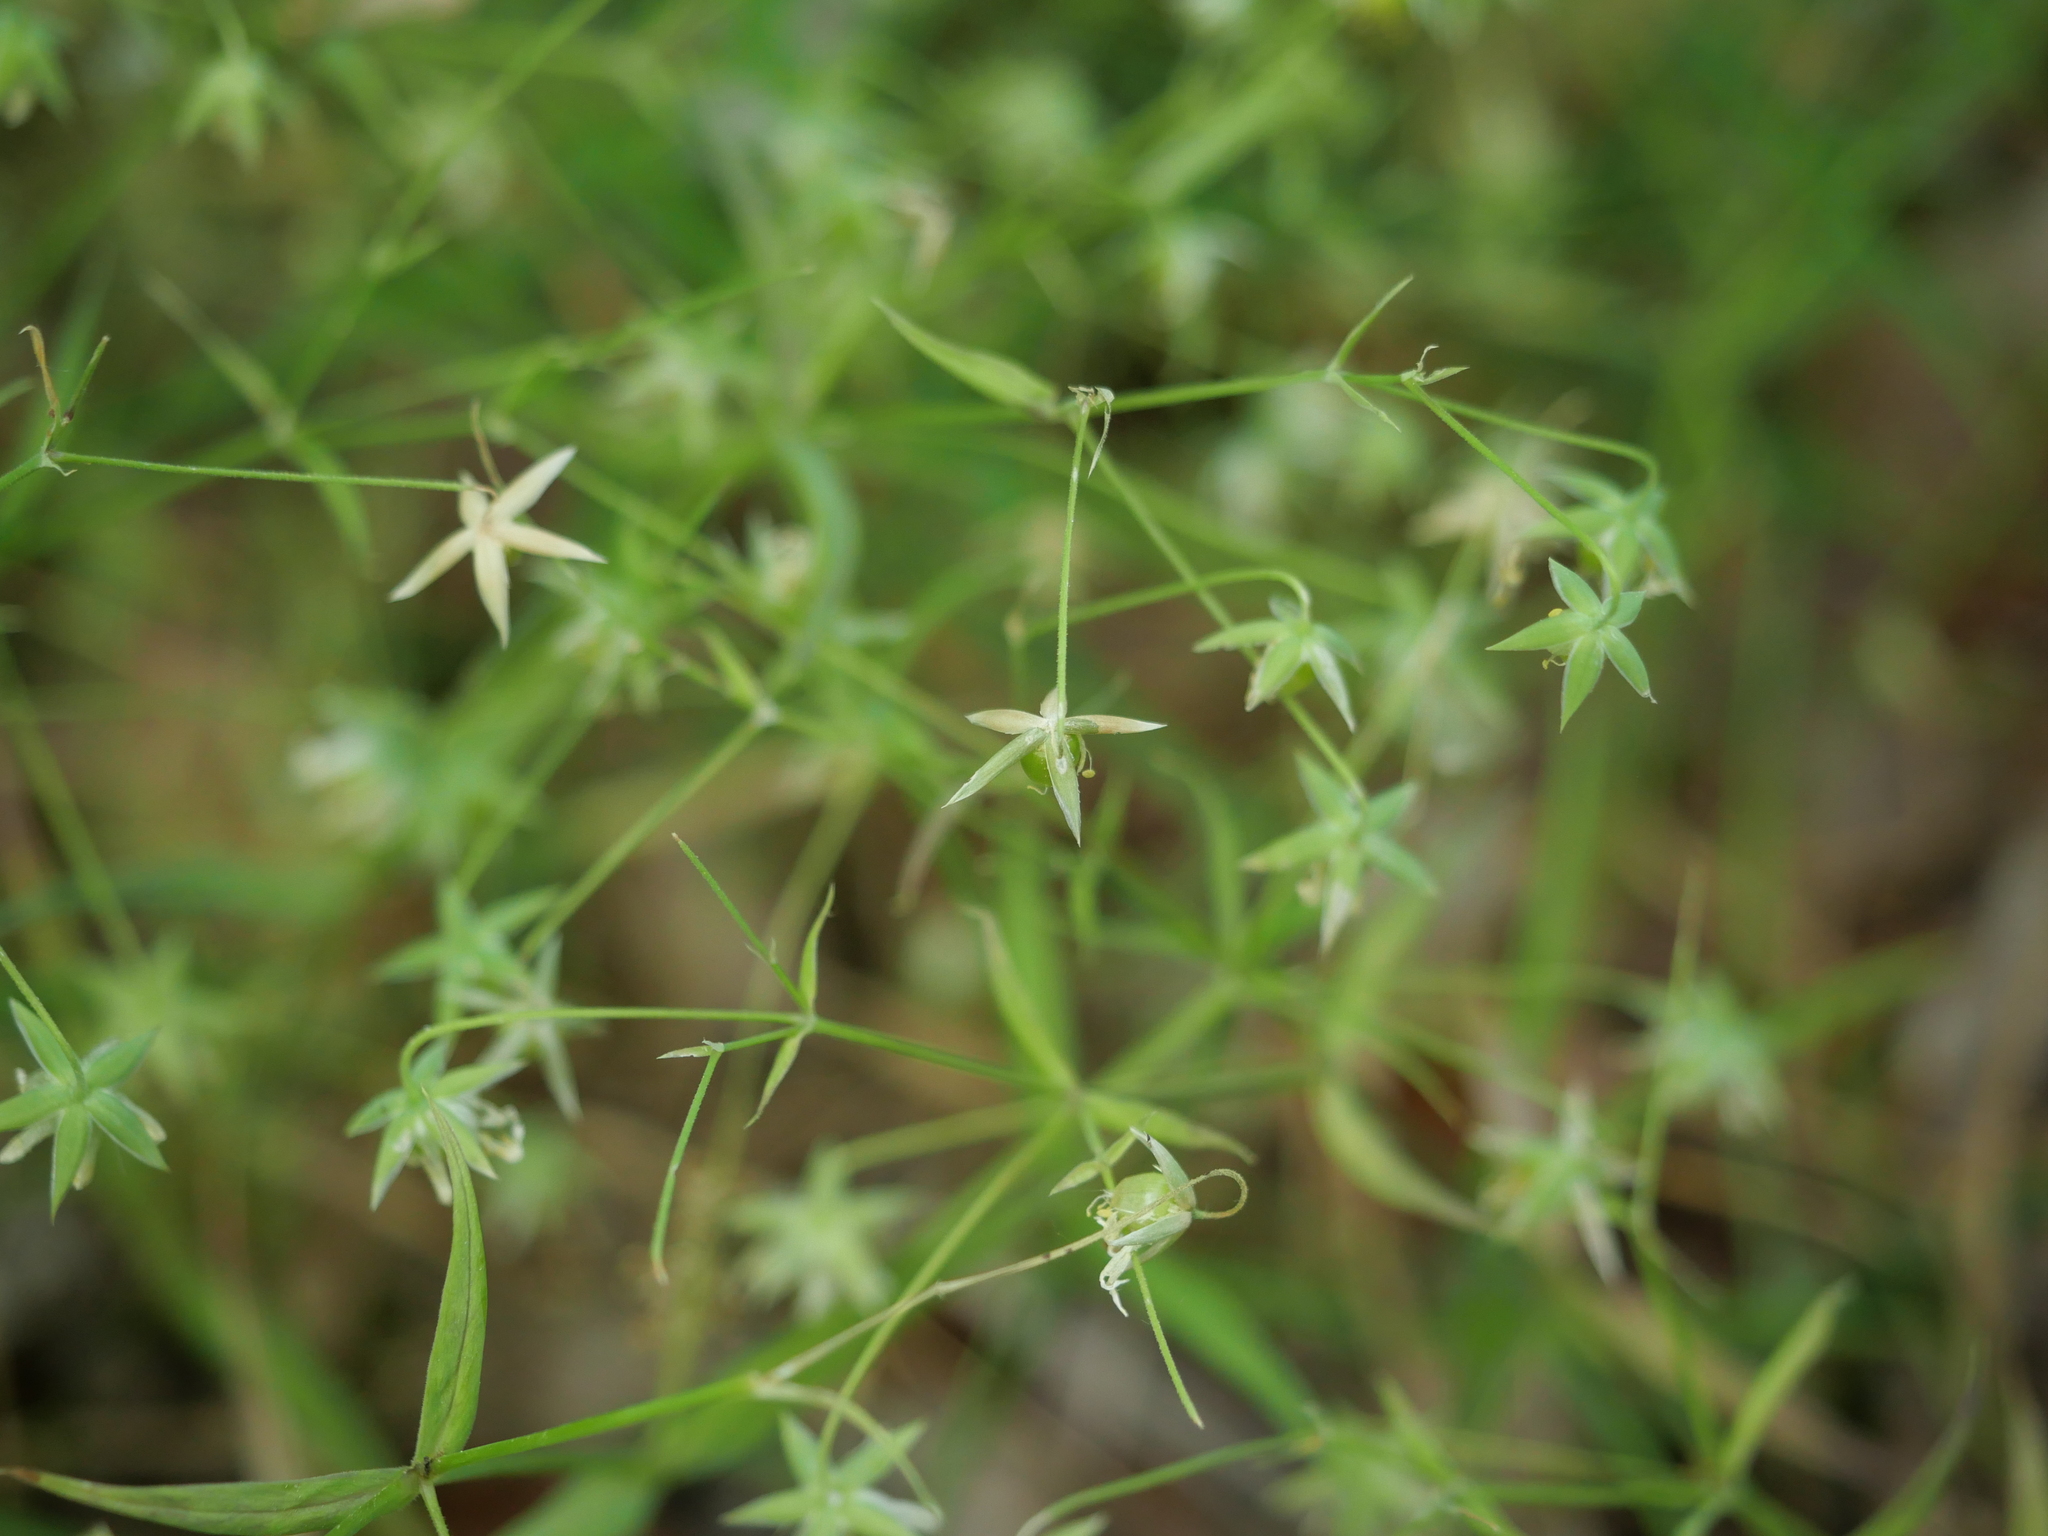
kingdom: Plantae
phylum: Tracheophyta
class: Magnoliopsida
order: Caryophyllales
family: Caryophyllaceae
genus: Rabelera
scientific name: Rabelera holostea
